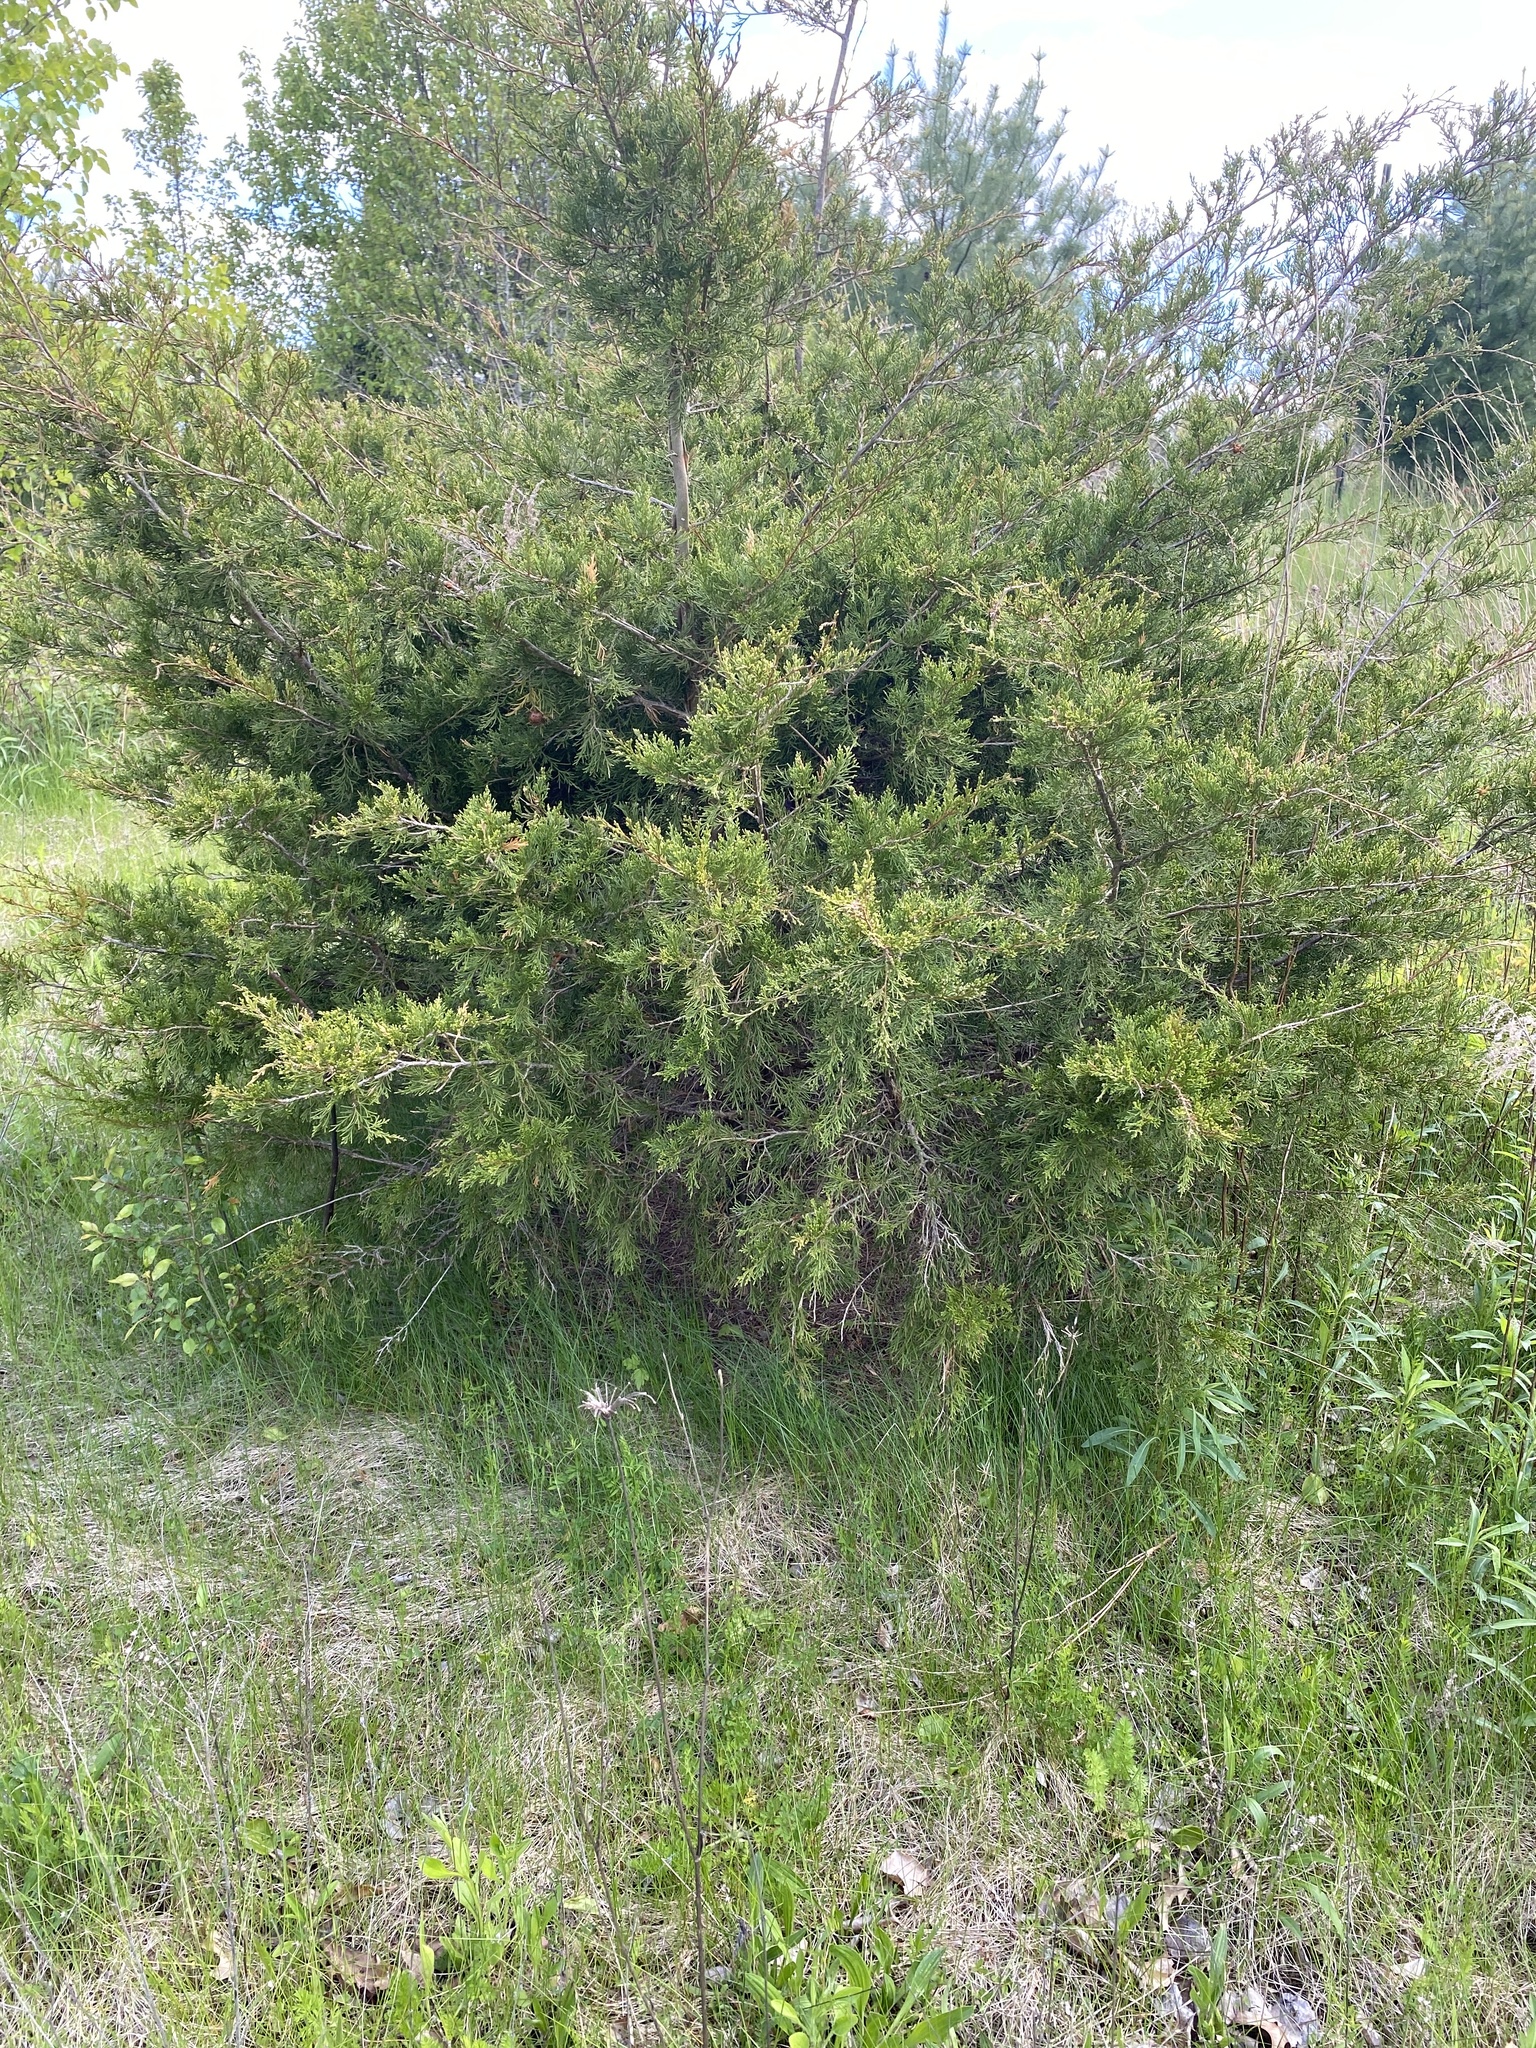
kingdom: Plantae
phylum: Tracheophyta
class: Pinopsida
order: Pinales
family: Cupressaceae
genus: Juniperus
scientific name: Juniperus virginiana
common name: Red juniper
